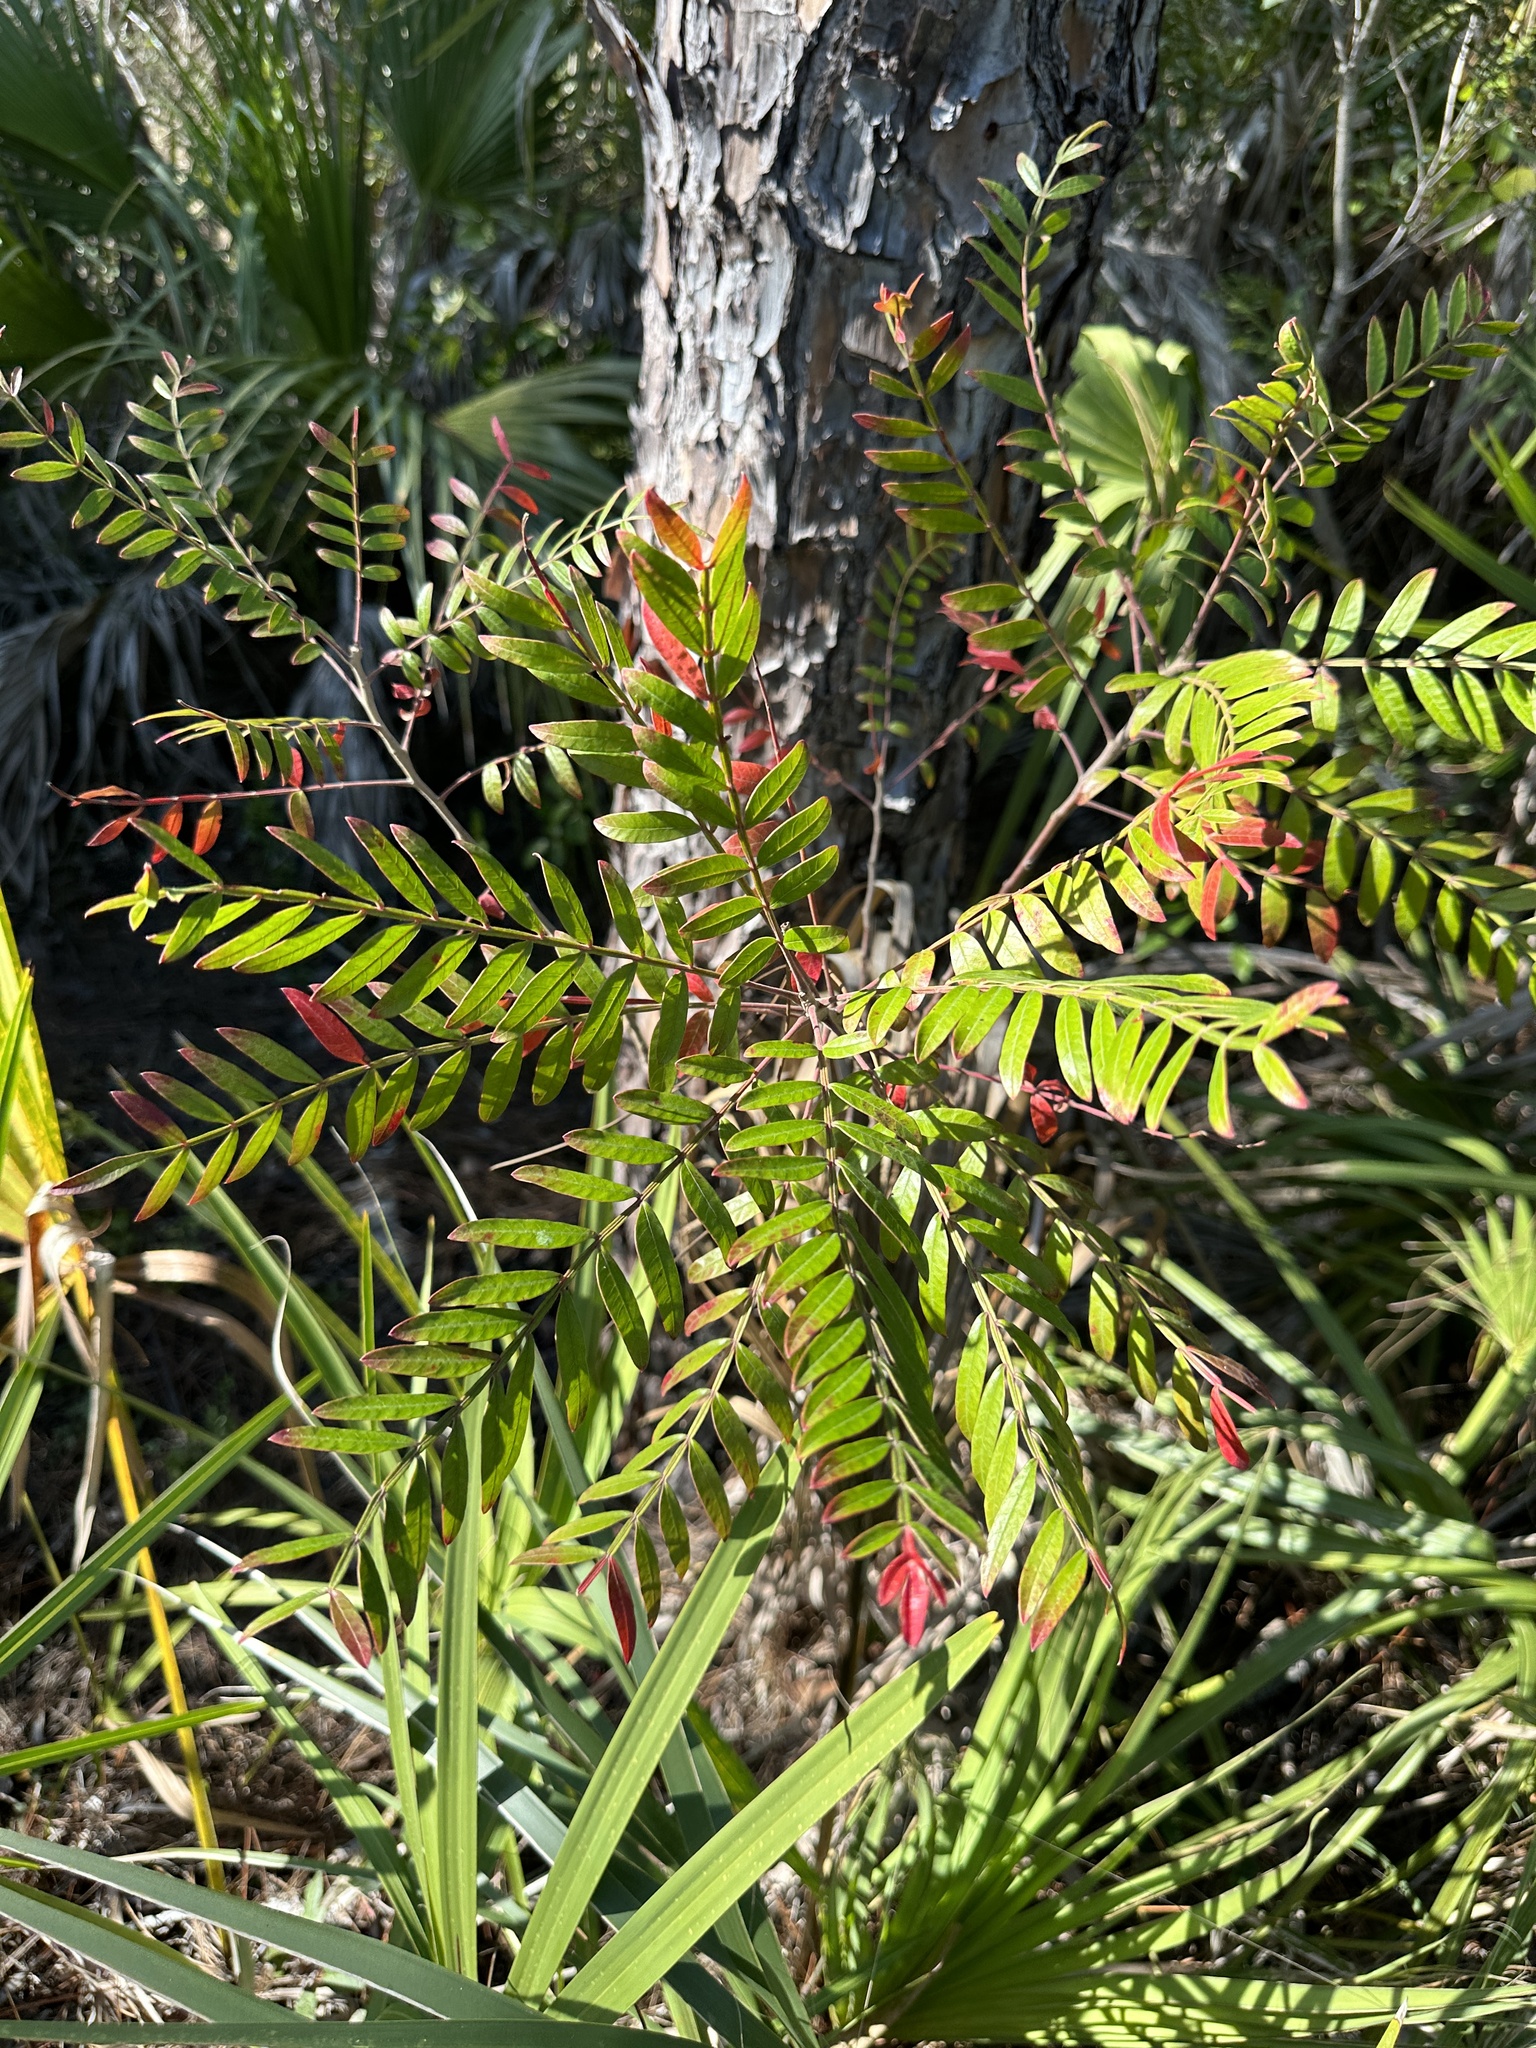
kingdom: Plantae
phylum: Tracheophyta
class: Magnoliopsida
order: Sapindales
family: Anacardiaceae
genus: Rhus
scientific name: Rhus copallina
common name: Shining sumac
